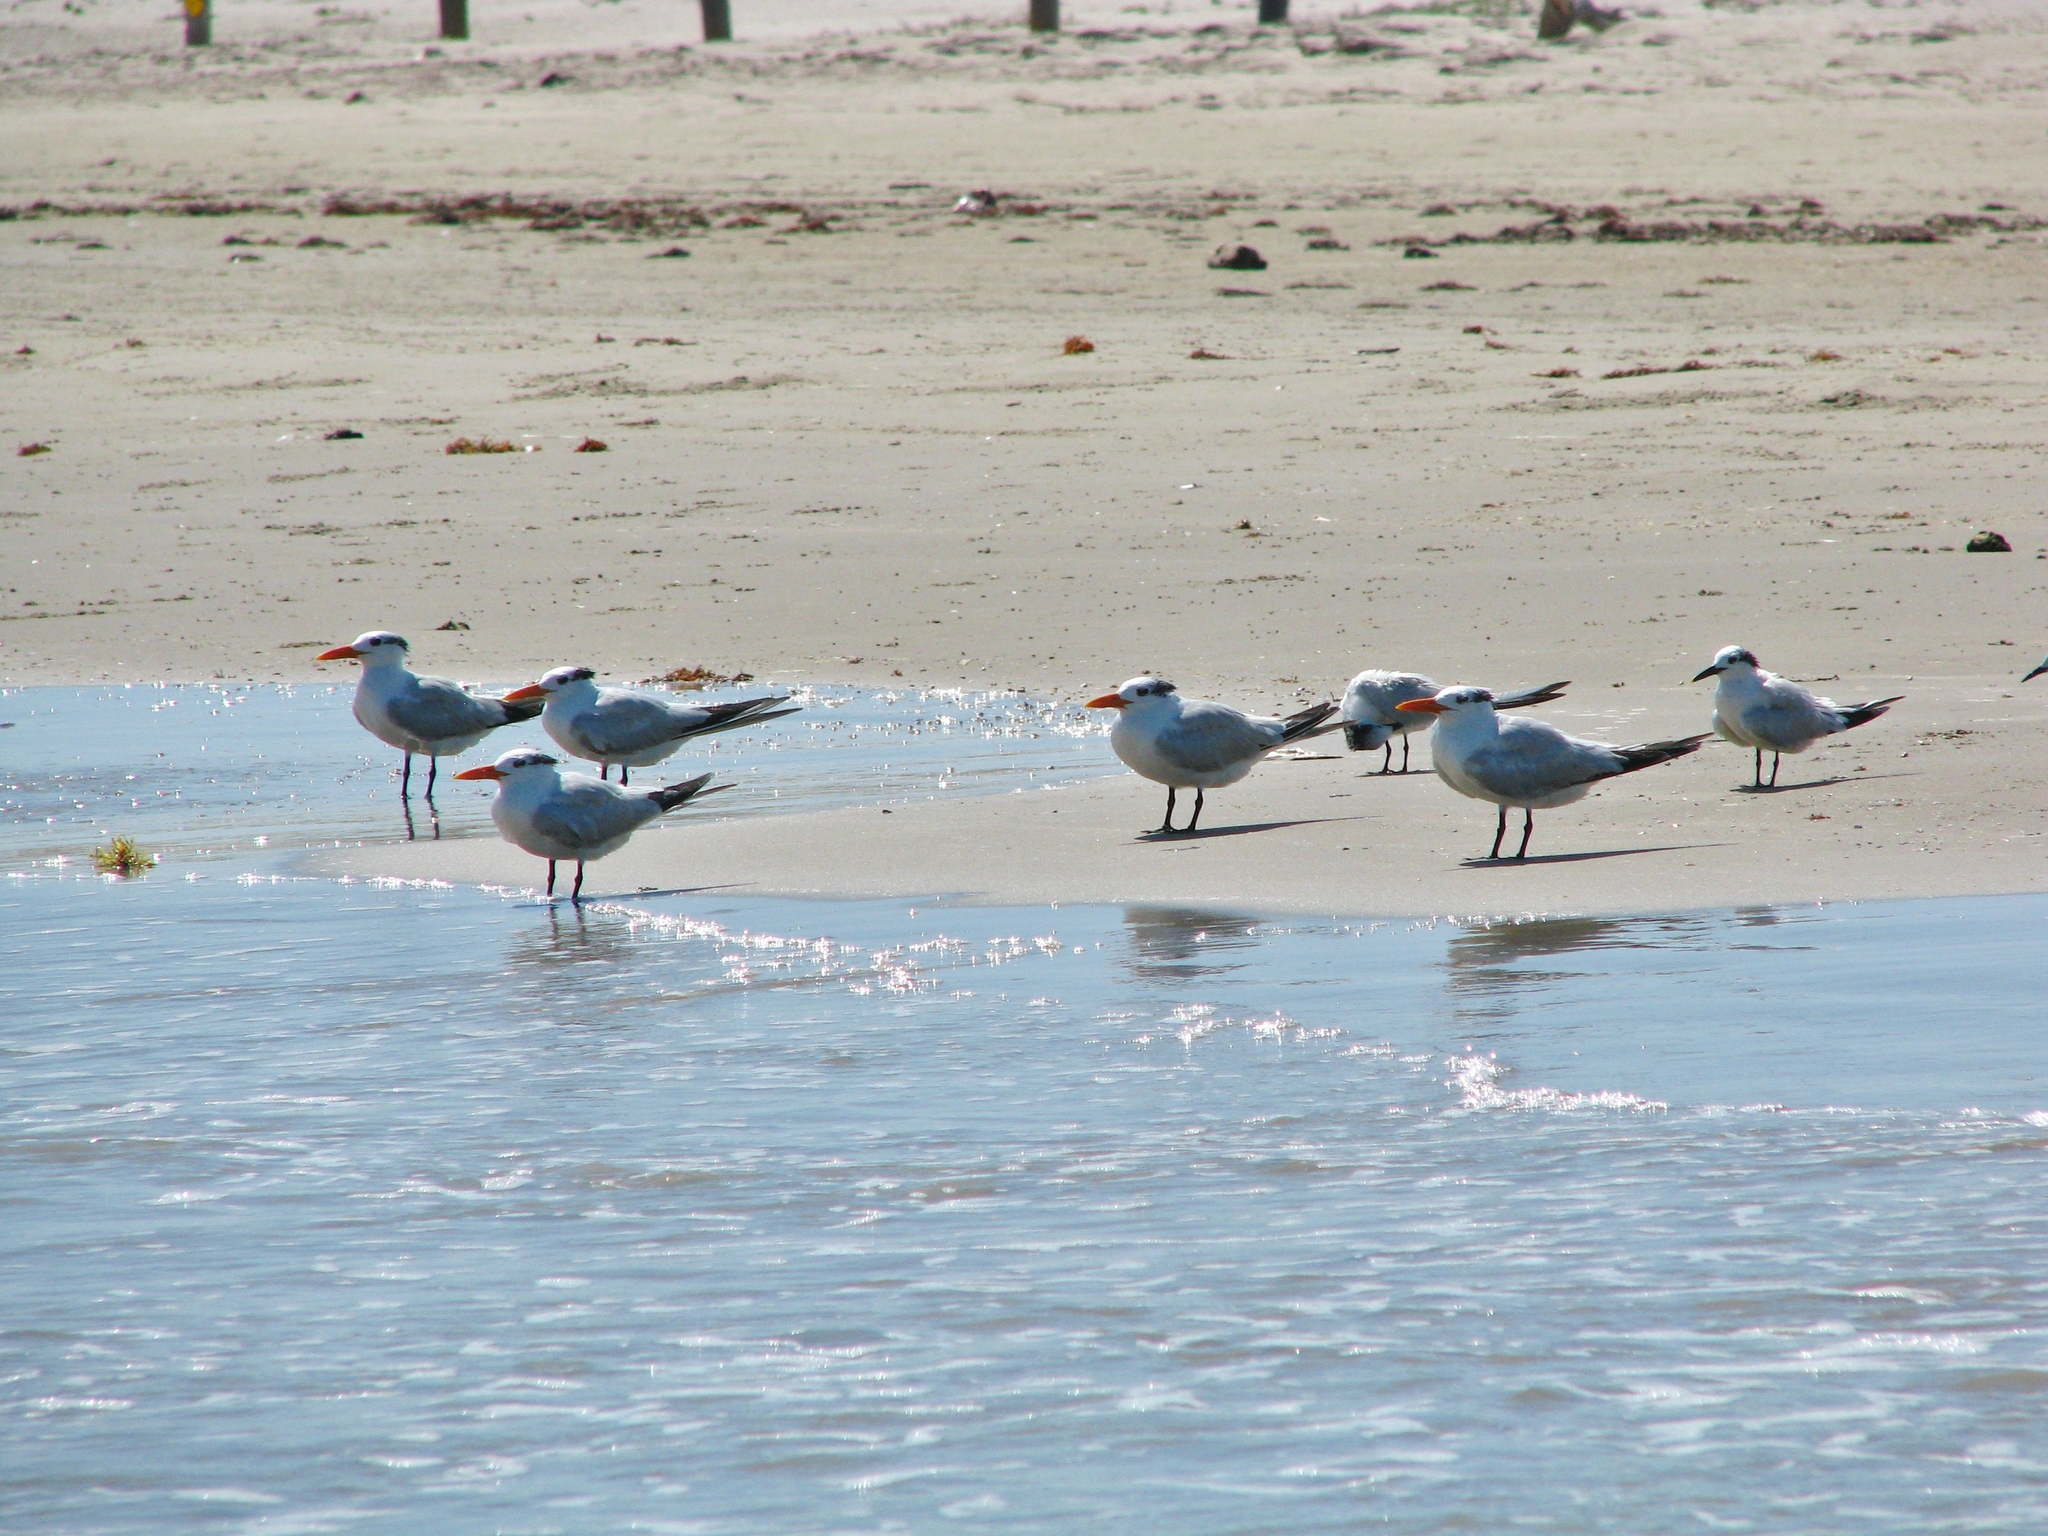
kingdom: Animalia
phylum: Chordata
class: Aves
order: Charadriiformes
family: Laridae
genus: Thalasseus
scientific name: Thalasseus maximus
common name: Royal tern
